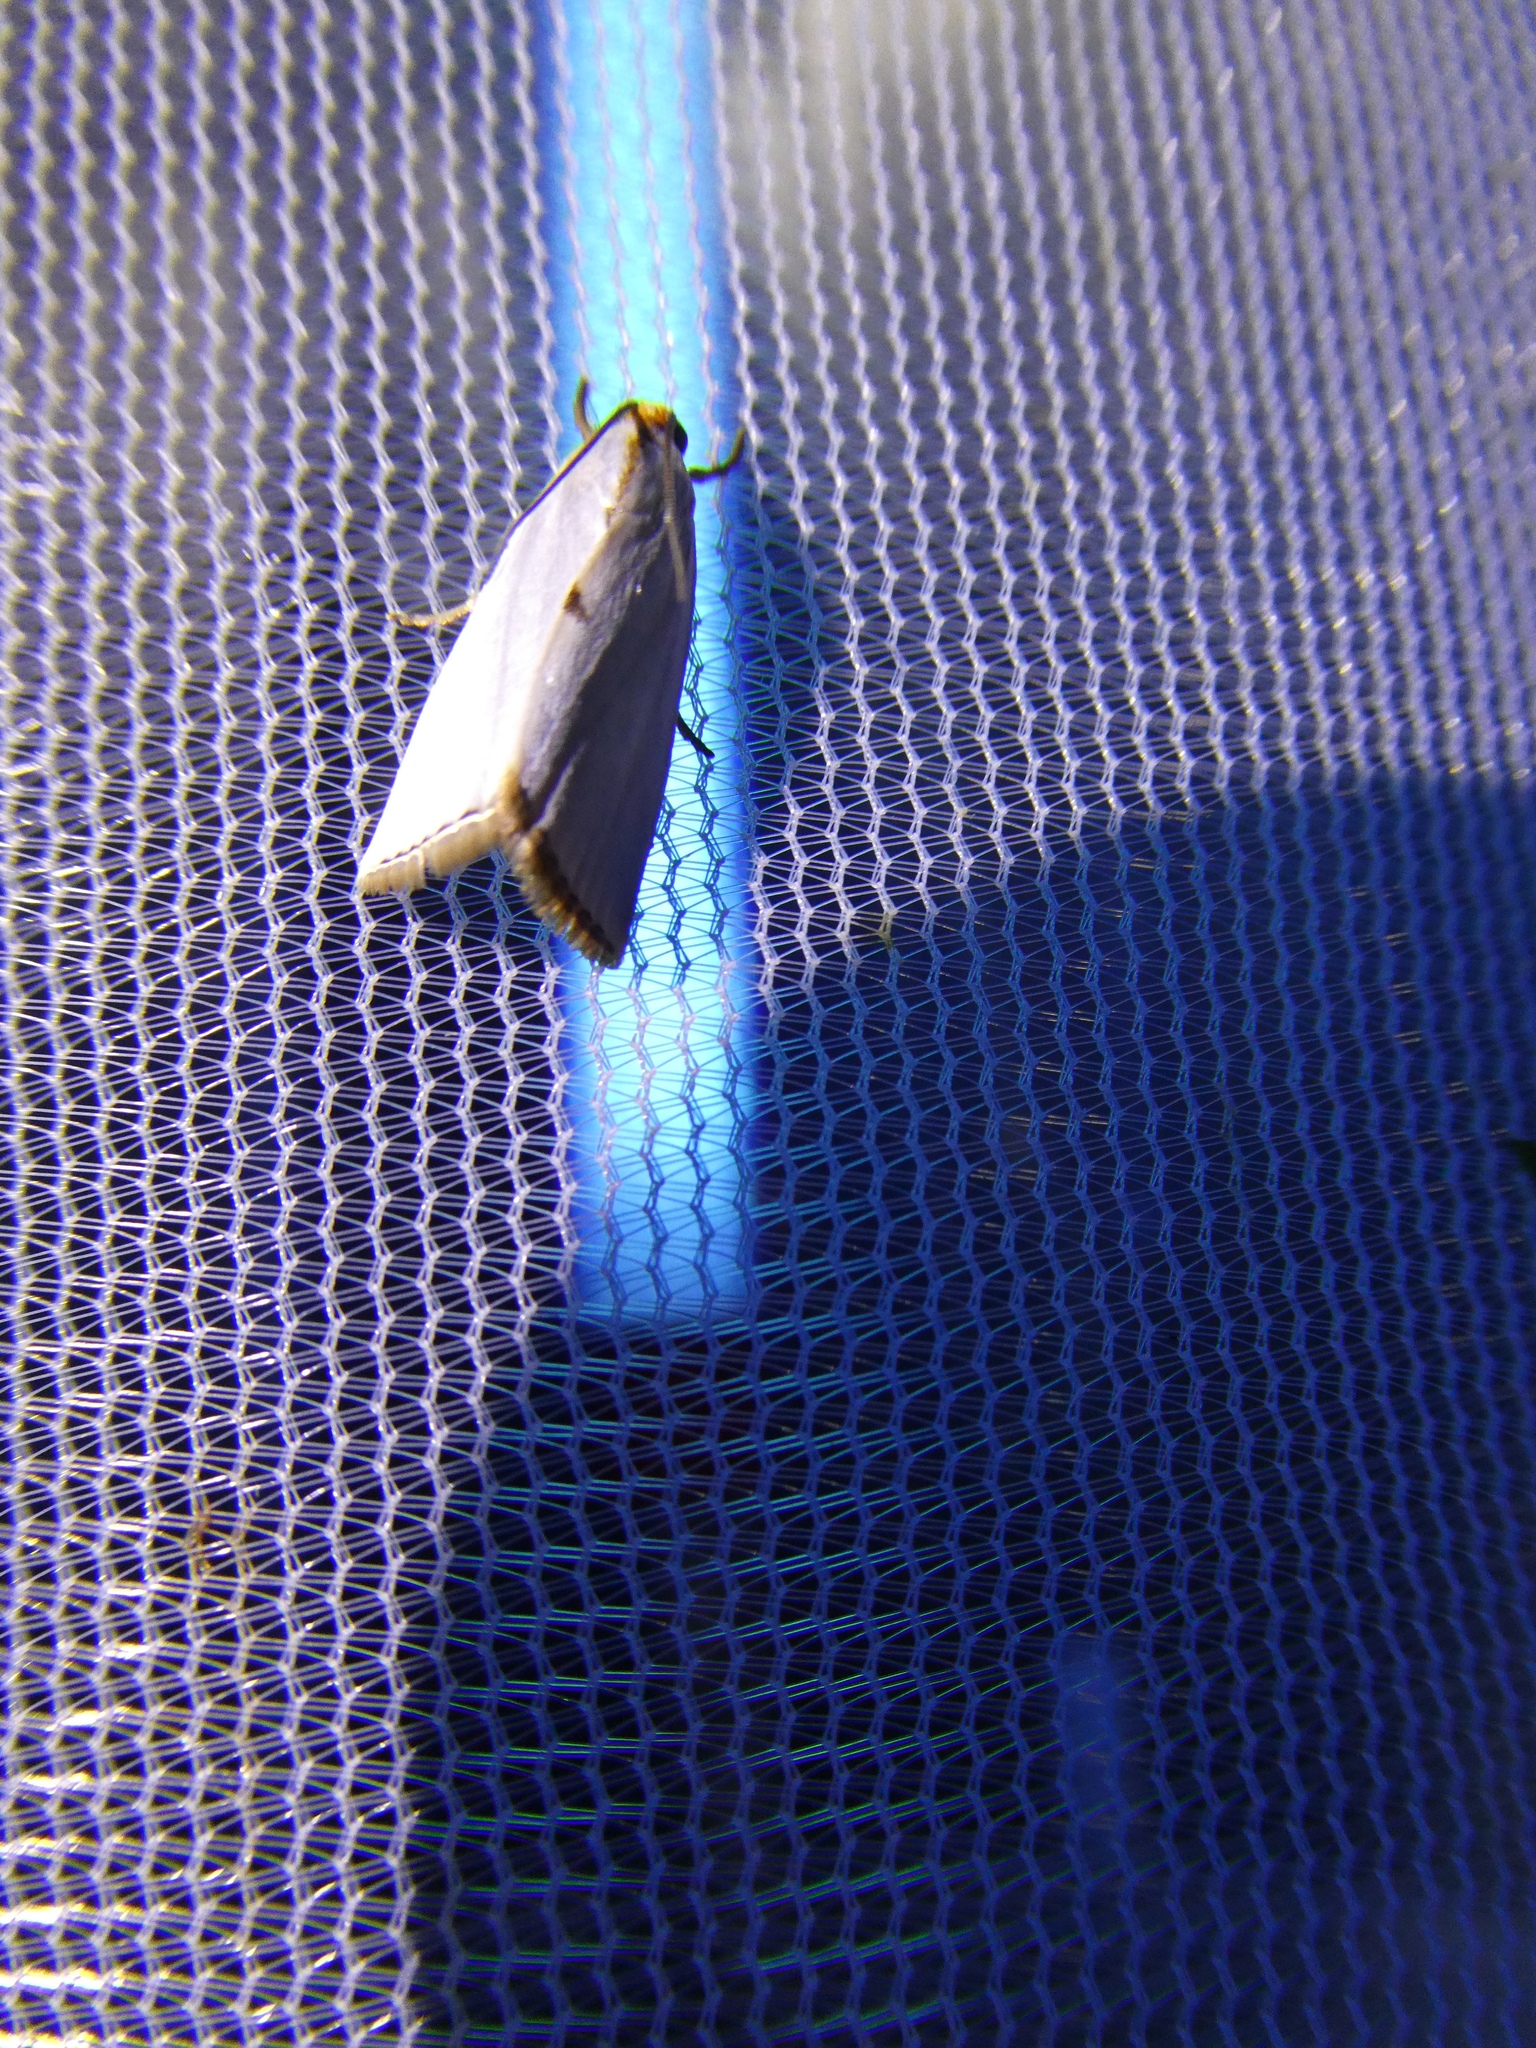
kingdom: Animalia
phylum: Arthropoda
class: Insecta
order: Lepidoptera
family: Crambidae
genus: Argyria
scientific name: Argyria nivalis
